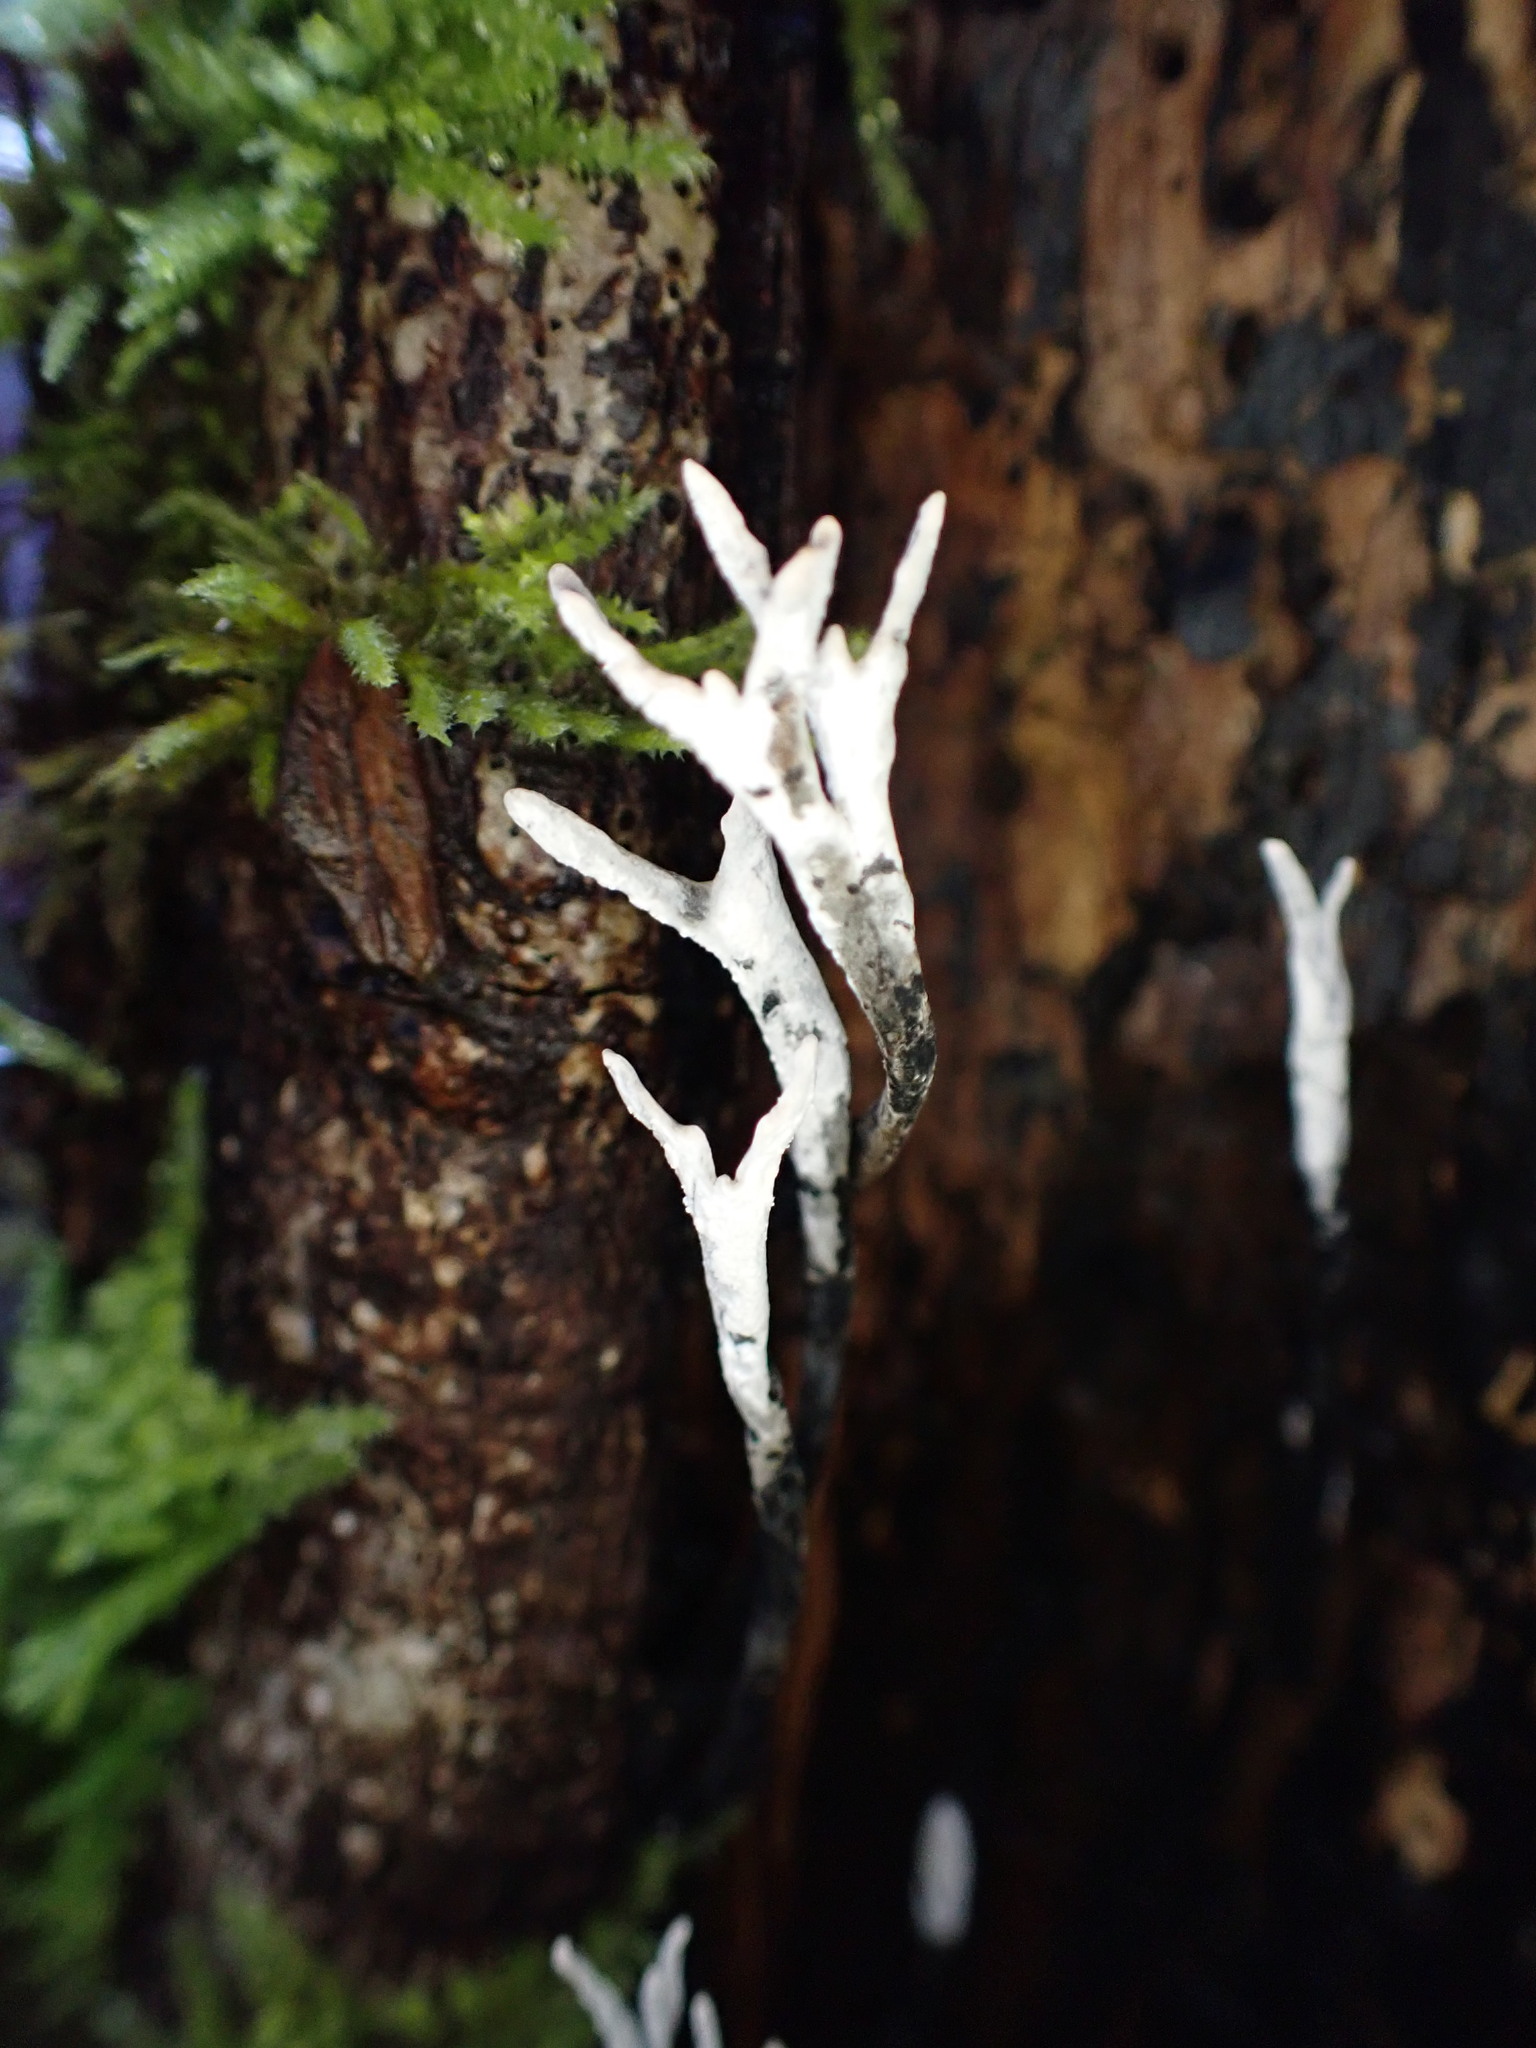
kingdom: Fungi
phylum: Ascomycota
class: Sordariomycetes
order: Xylariales
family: Xylariaceae
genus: Xylaria
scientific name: Xylaria hypoxylon
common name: Candle-snuff fungus
